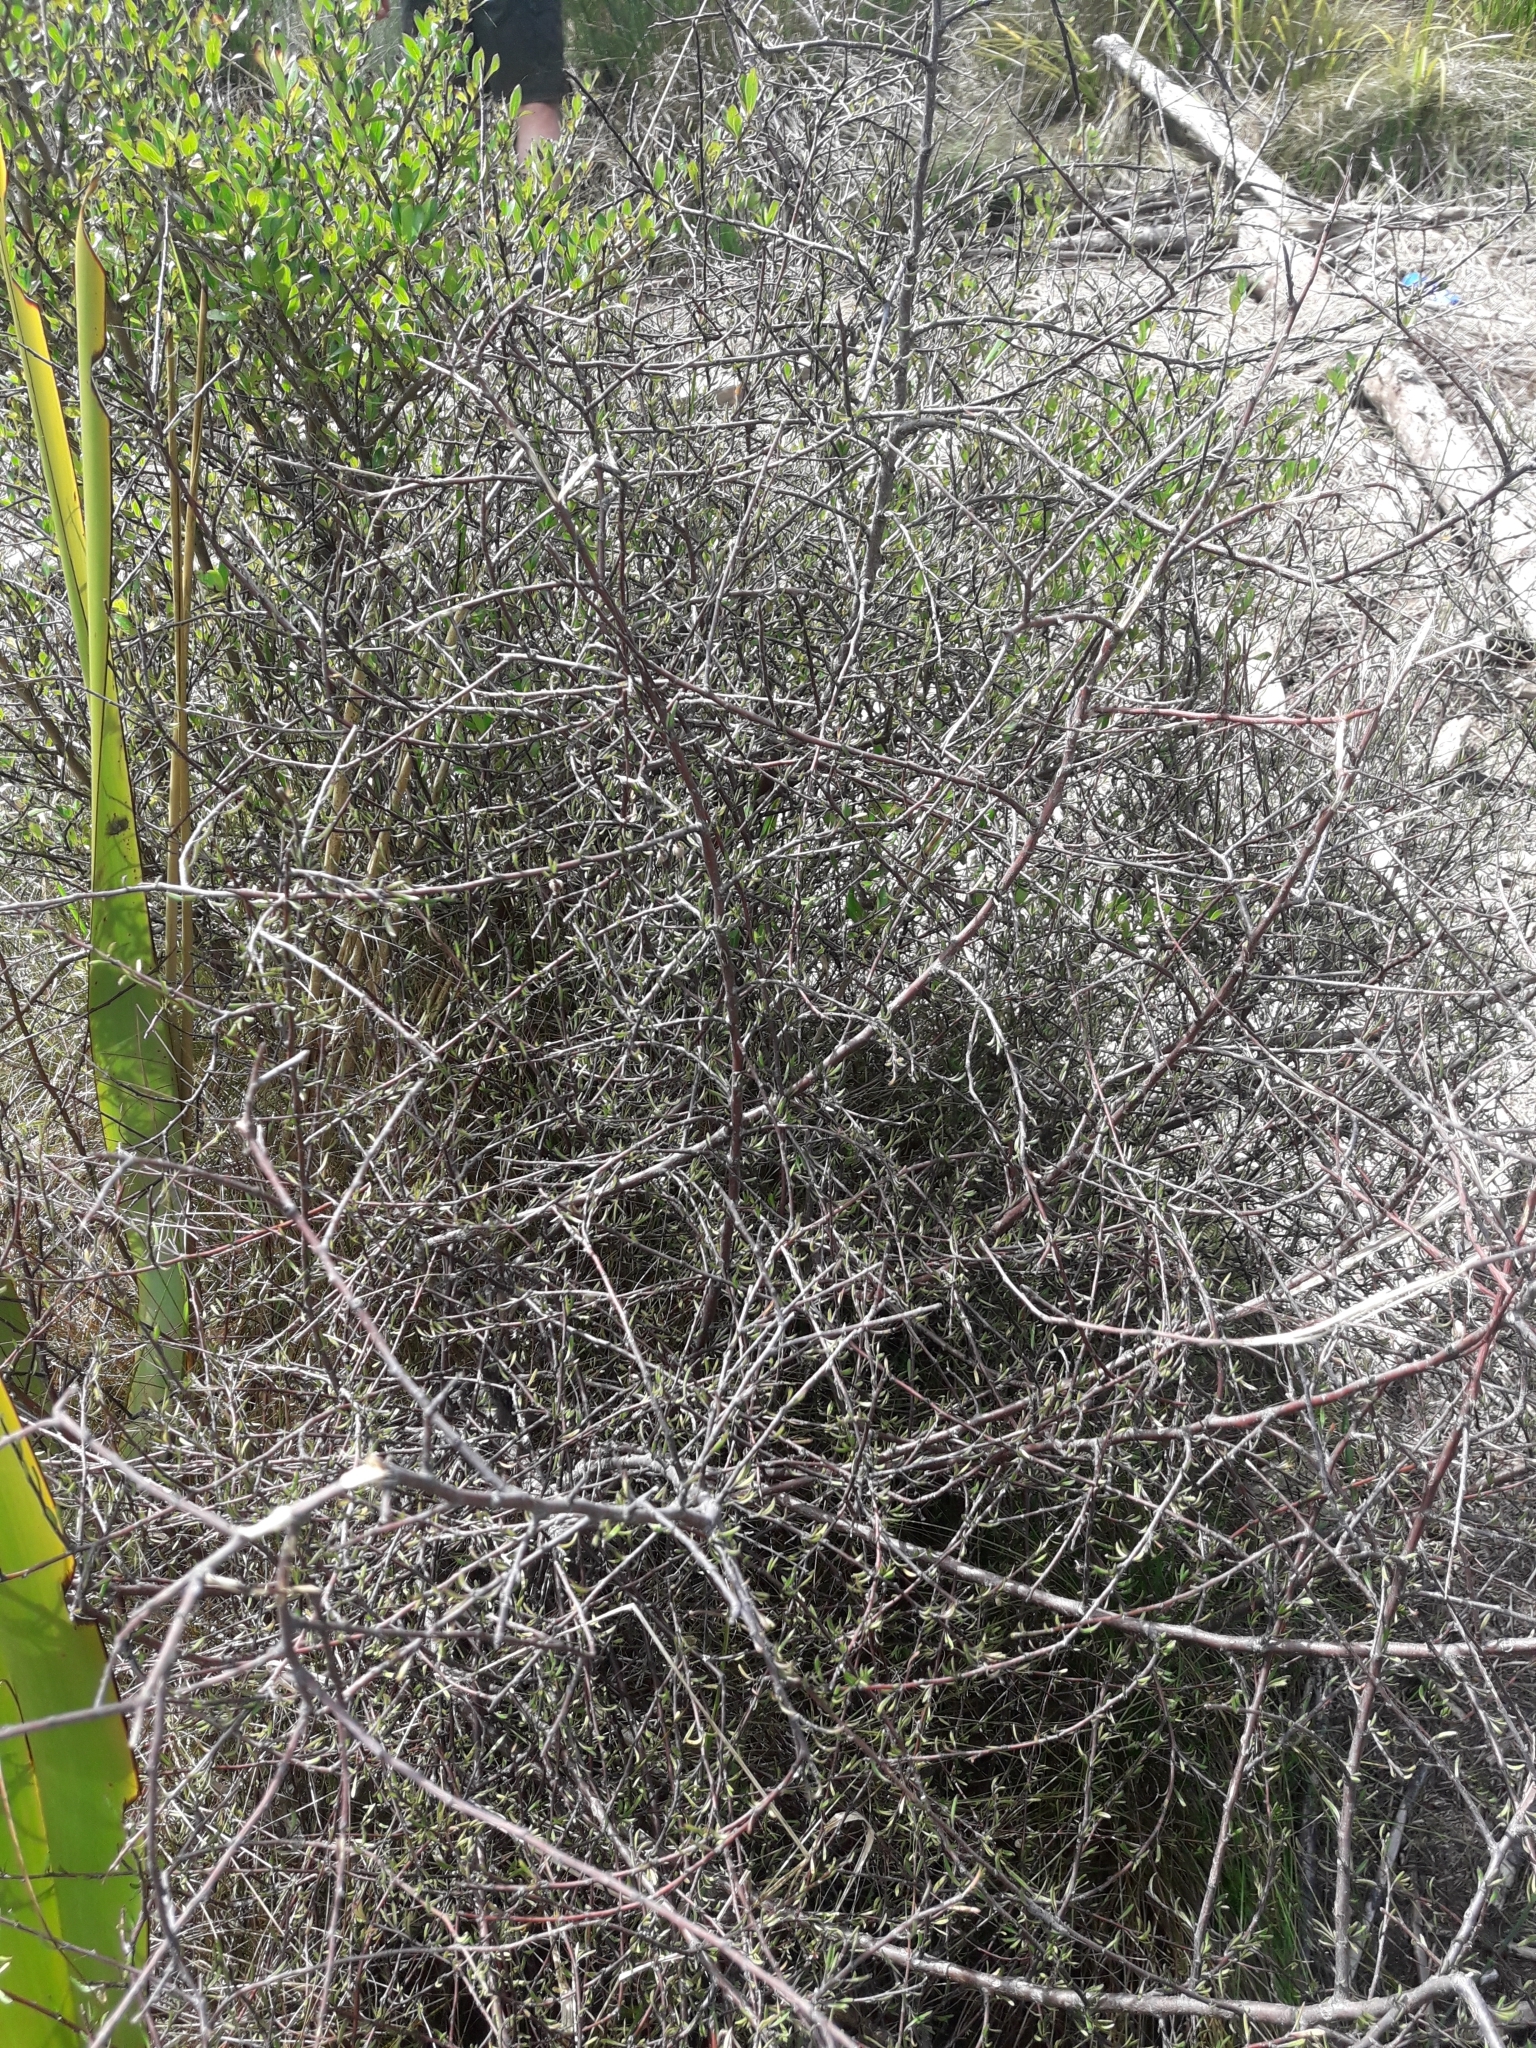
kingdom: Plantae
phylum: Tracheophyta
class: Magnoliopsida
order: Malvales
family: Malvaceae
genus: Plagianthus
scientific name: Plagianthus divaricatus
